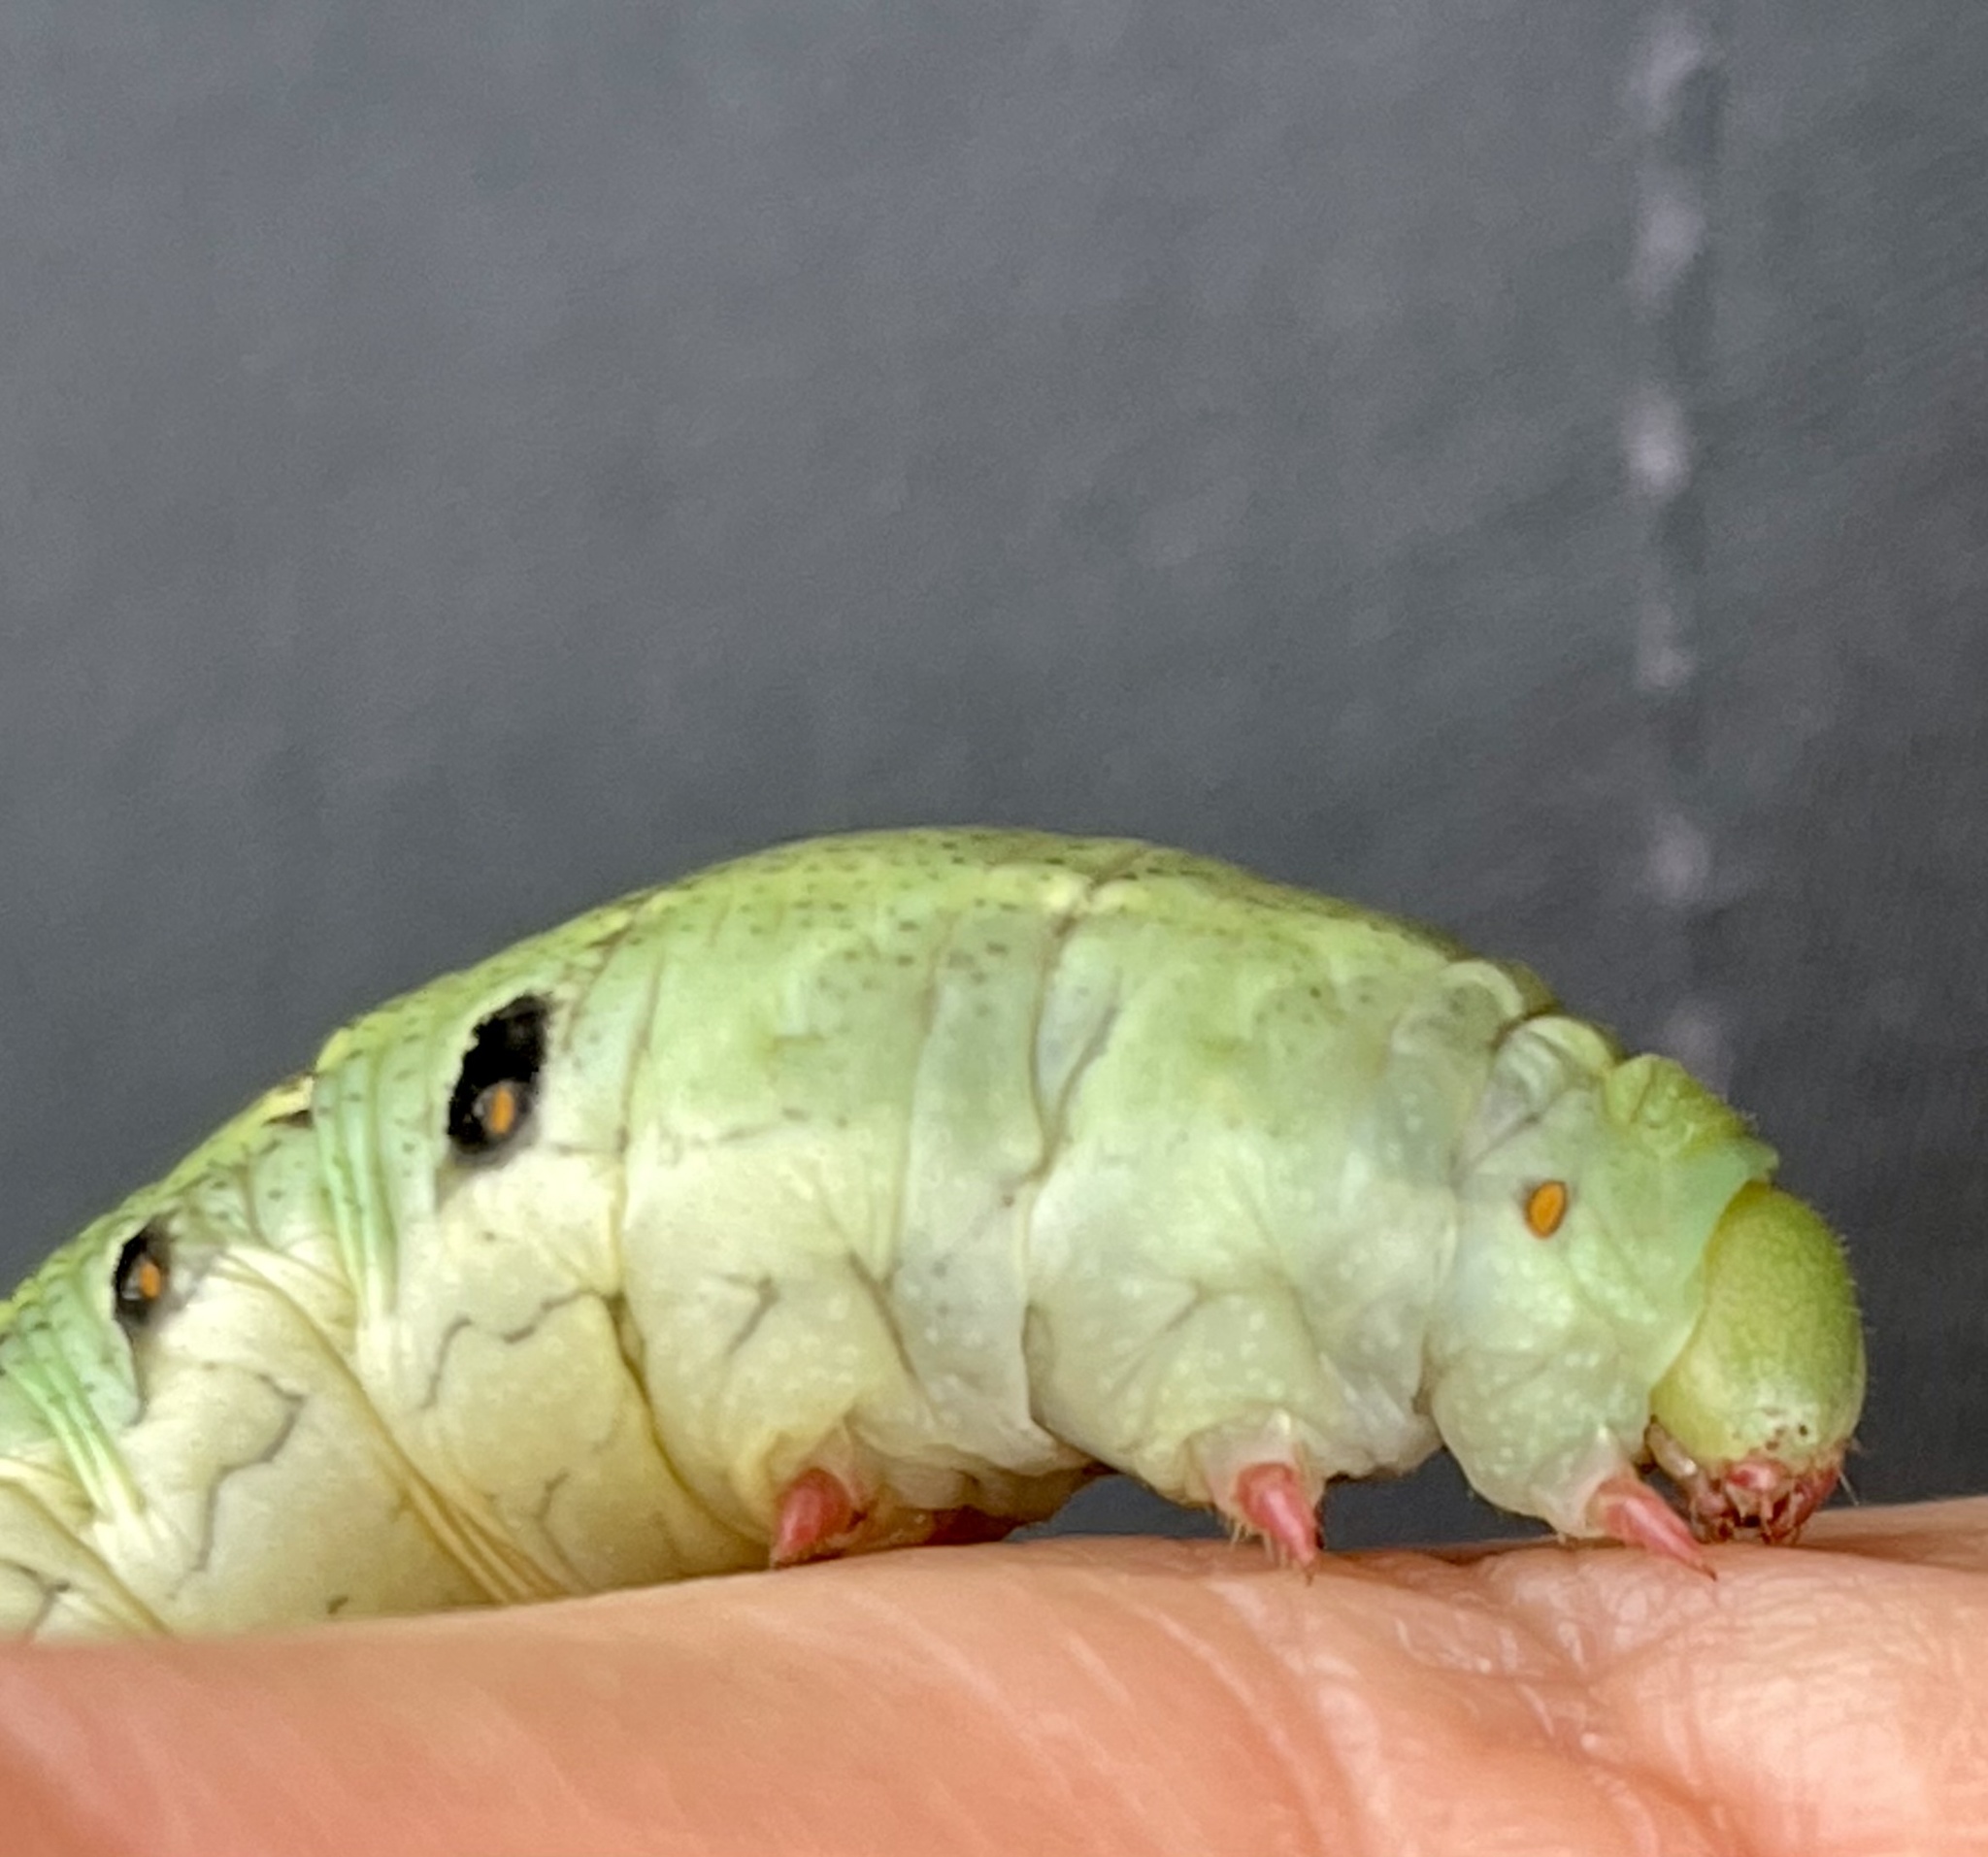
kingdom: Animalia
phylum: Arthropoda
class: Insecta
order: Lepidoptera
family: Sphingidae
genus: Proserpinus
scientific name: Proserpinus lucidus
